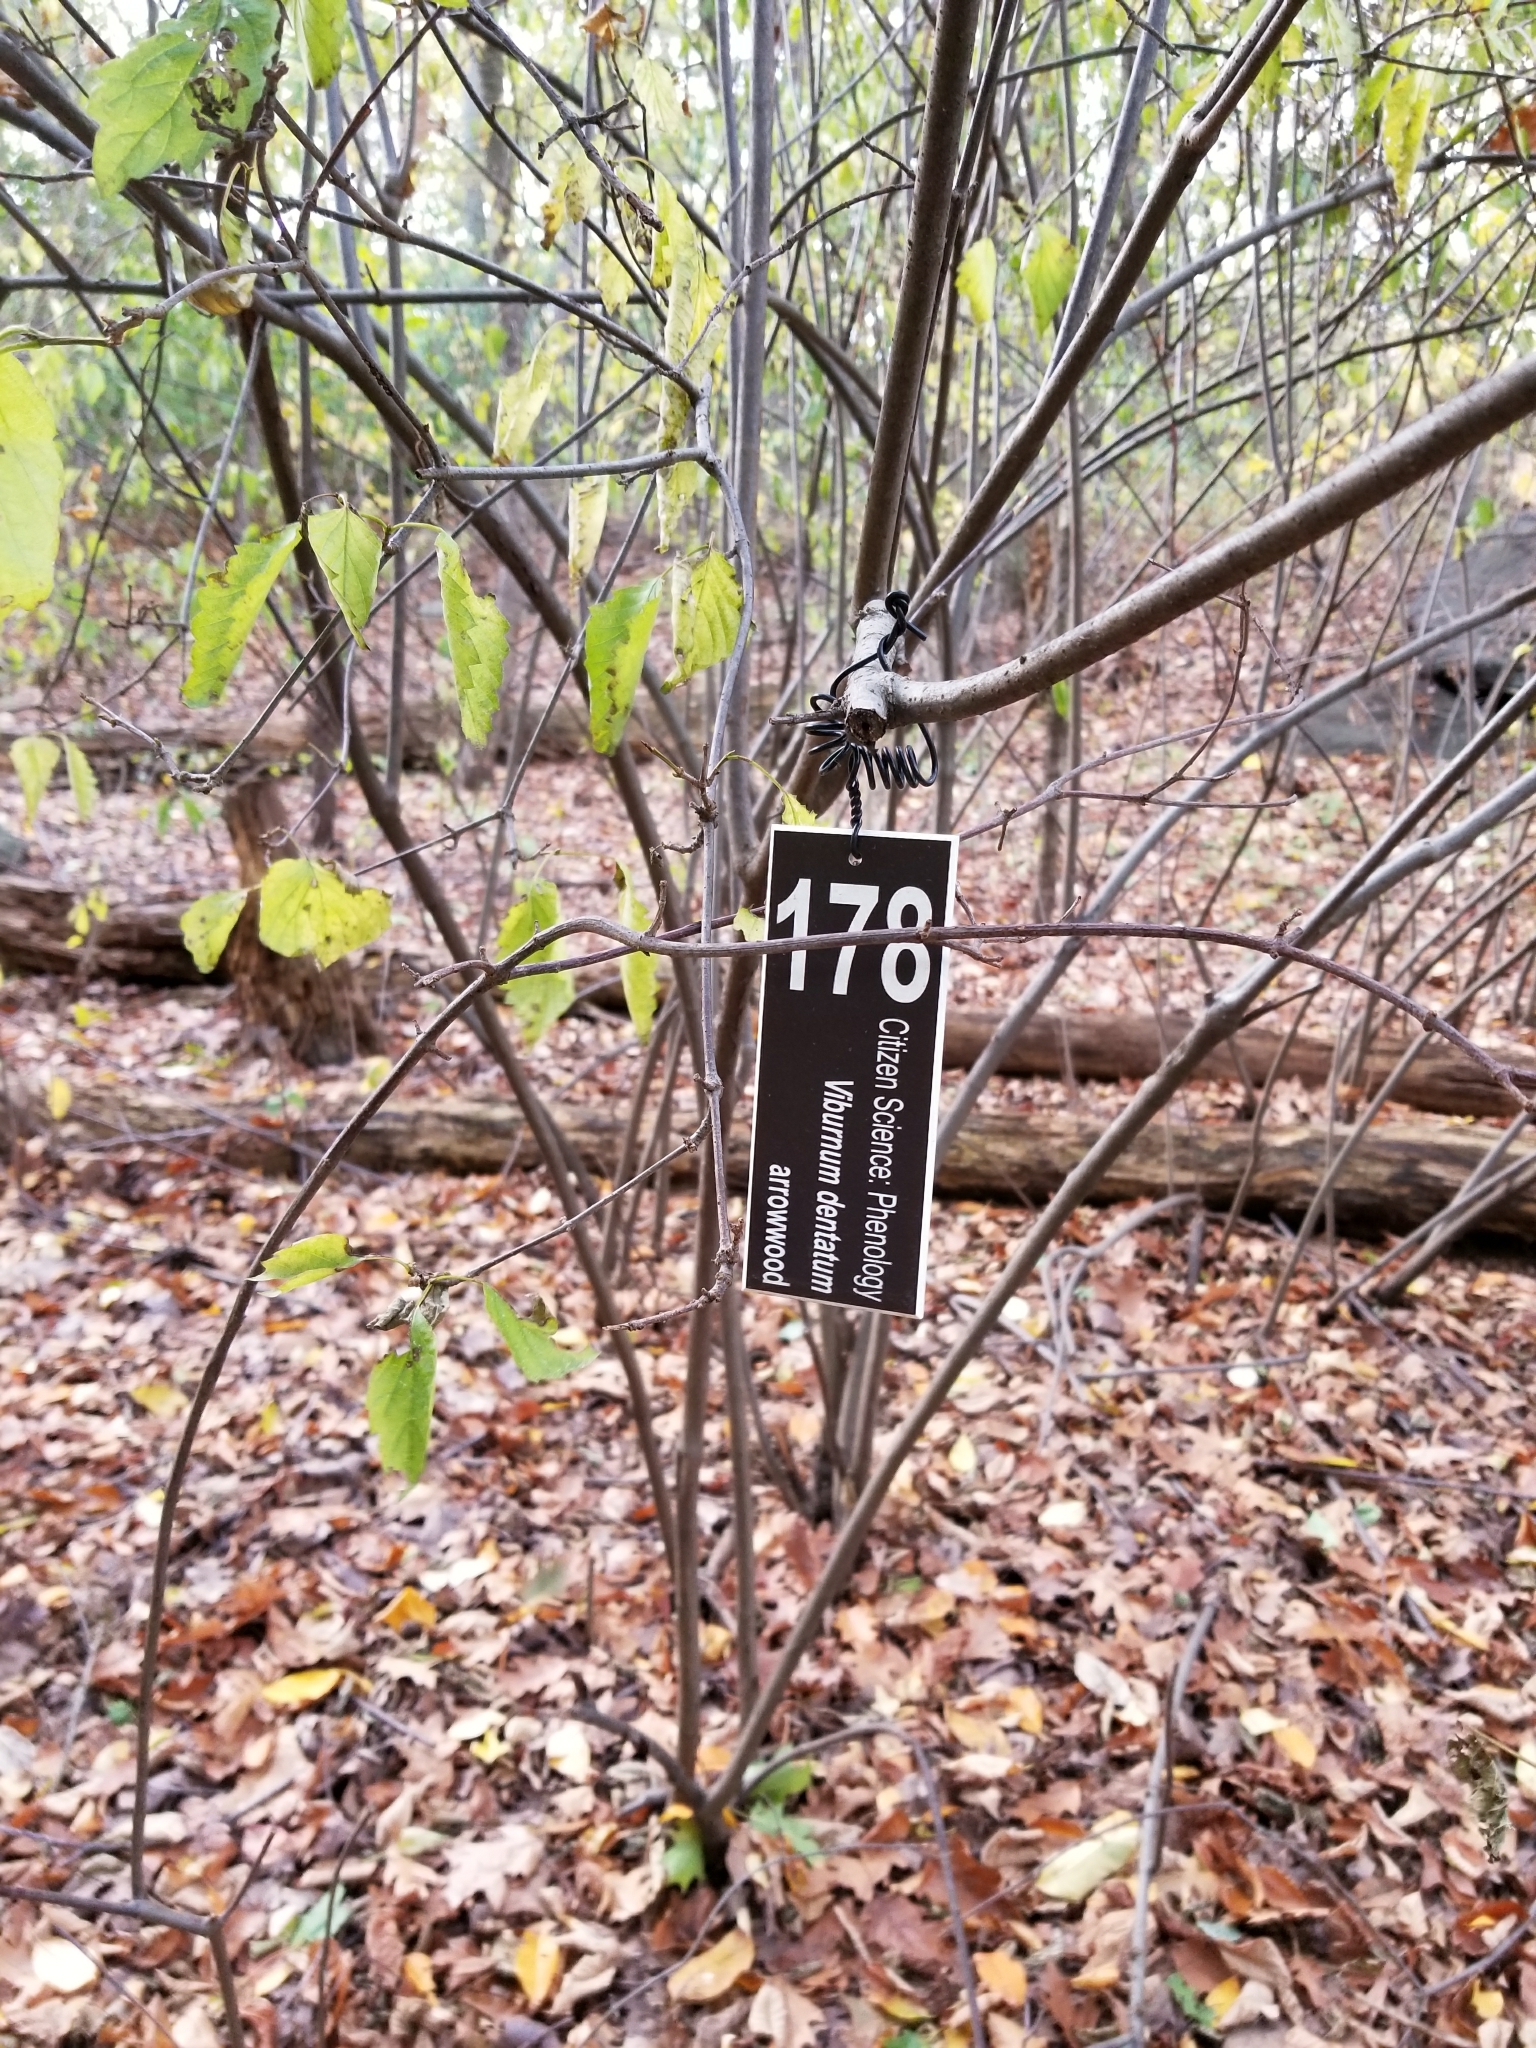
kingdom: Plantae
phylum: Tracheophyta
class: Magnoliopsida
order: Dipsacales
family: Viburnaceae
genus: Viburnum
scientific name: Viburnum dentatum
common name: Arrow-wood
